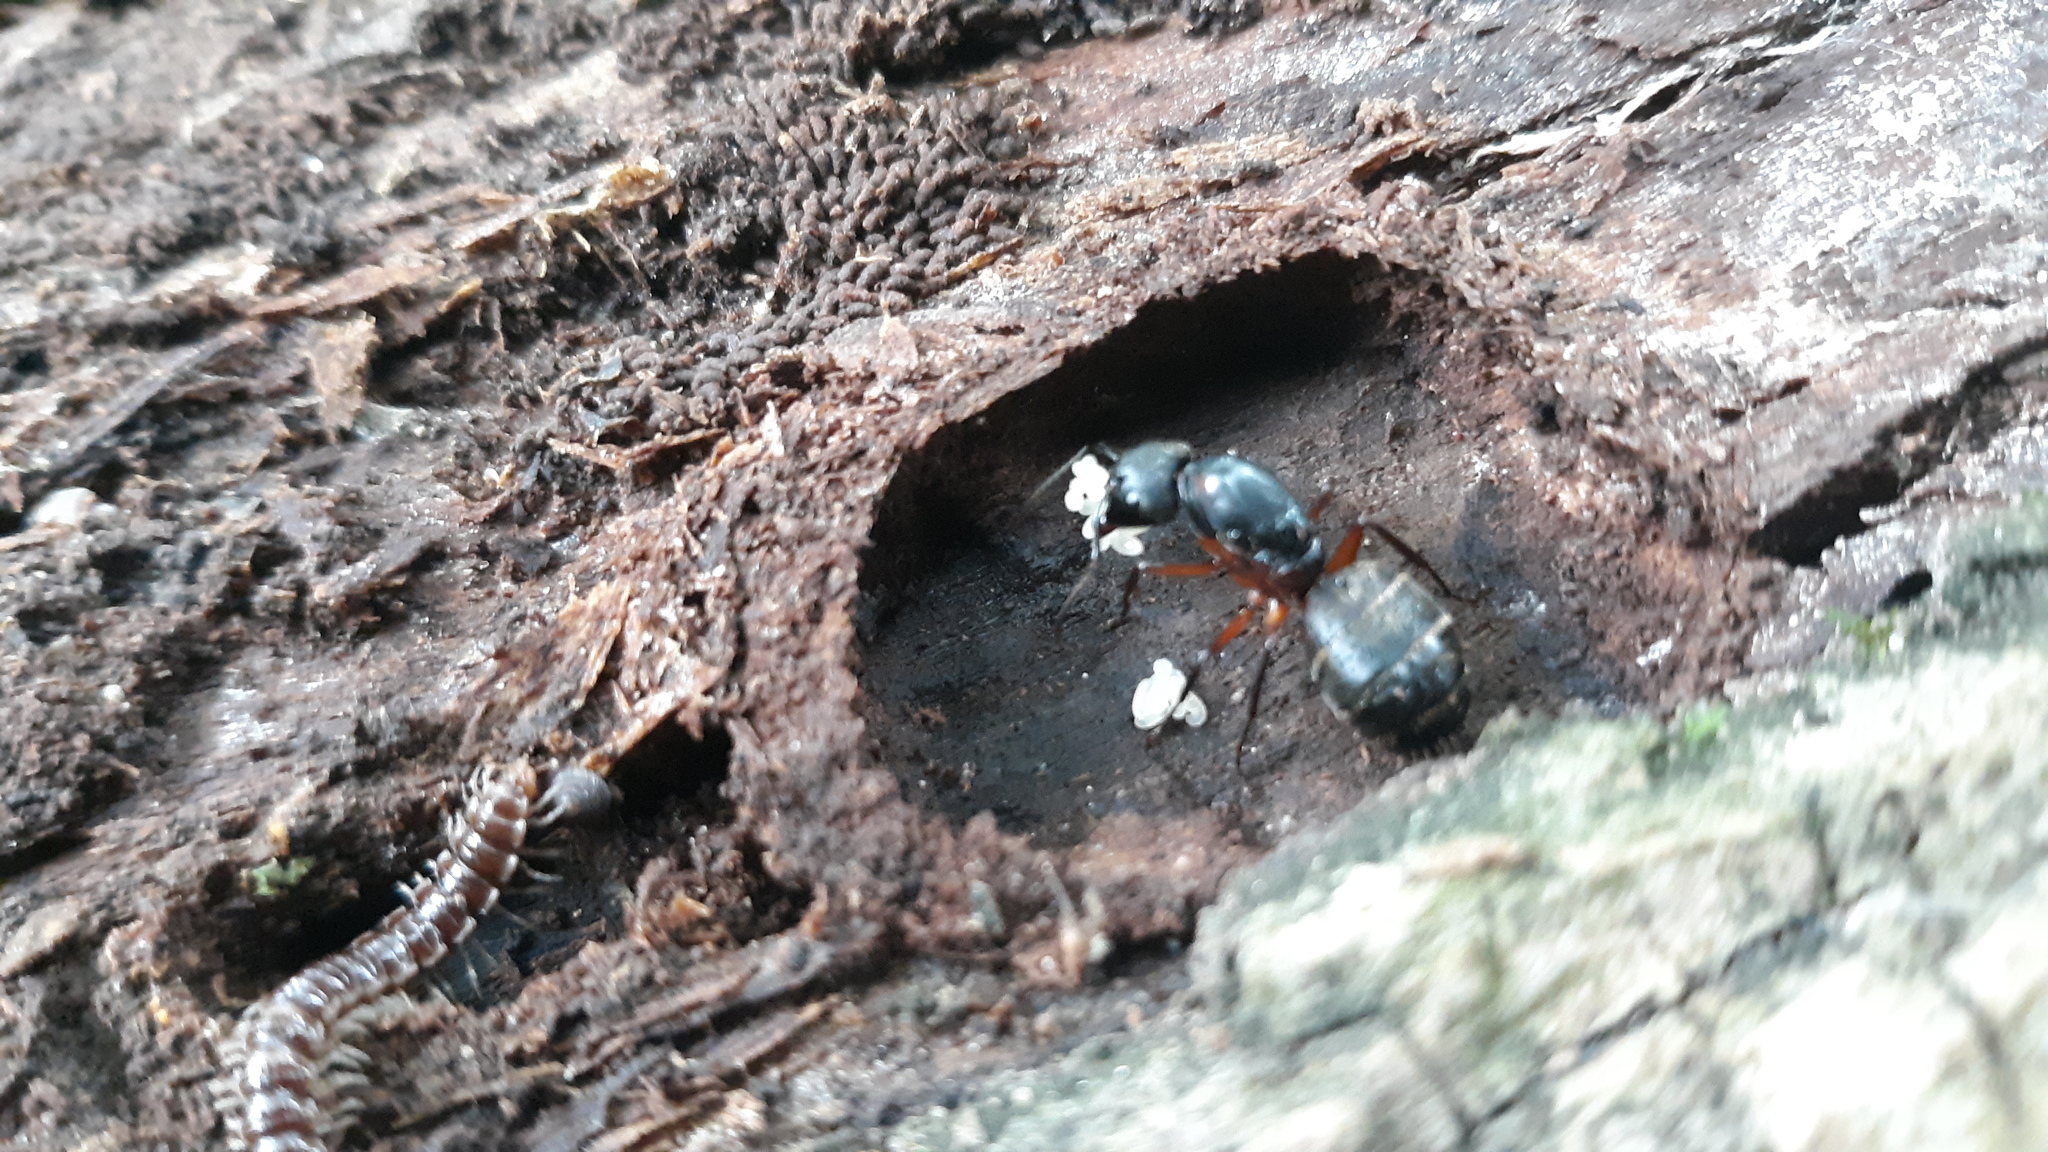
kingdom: Animalia
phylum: Arthropoda
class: Insecta
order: Hymenoptera
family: Formicidae
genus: Camponotus
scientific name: Camponotus chromaiodes
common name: Red carpenter ant
